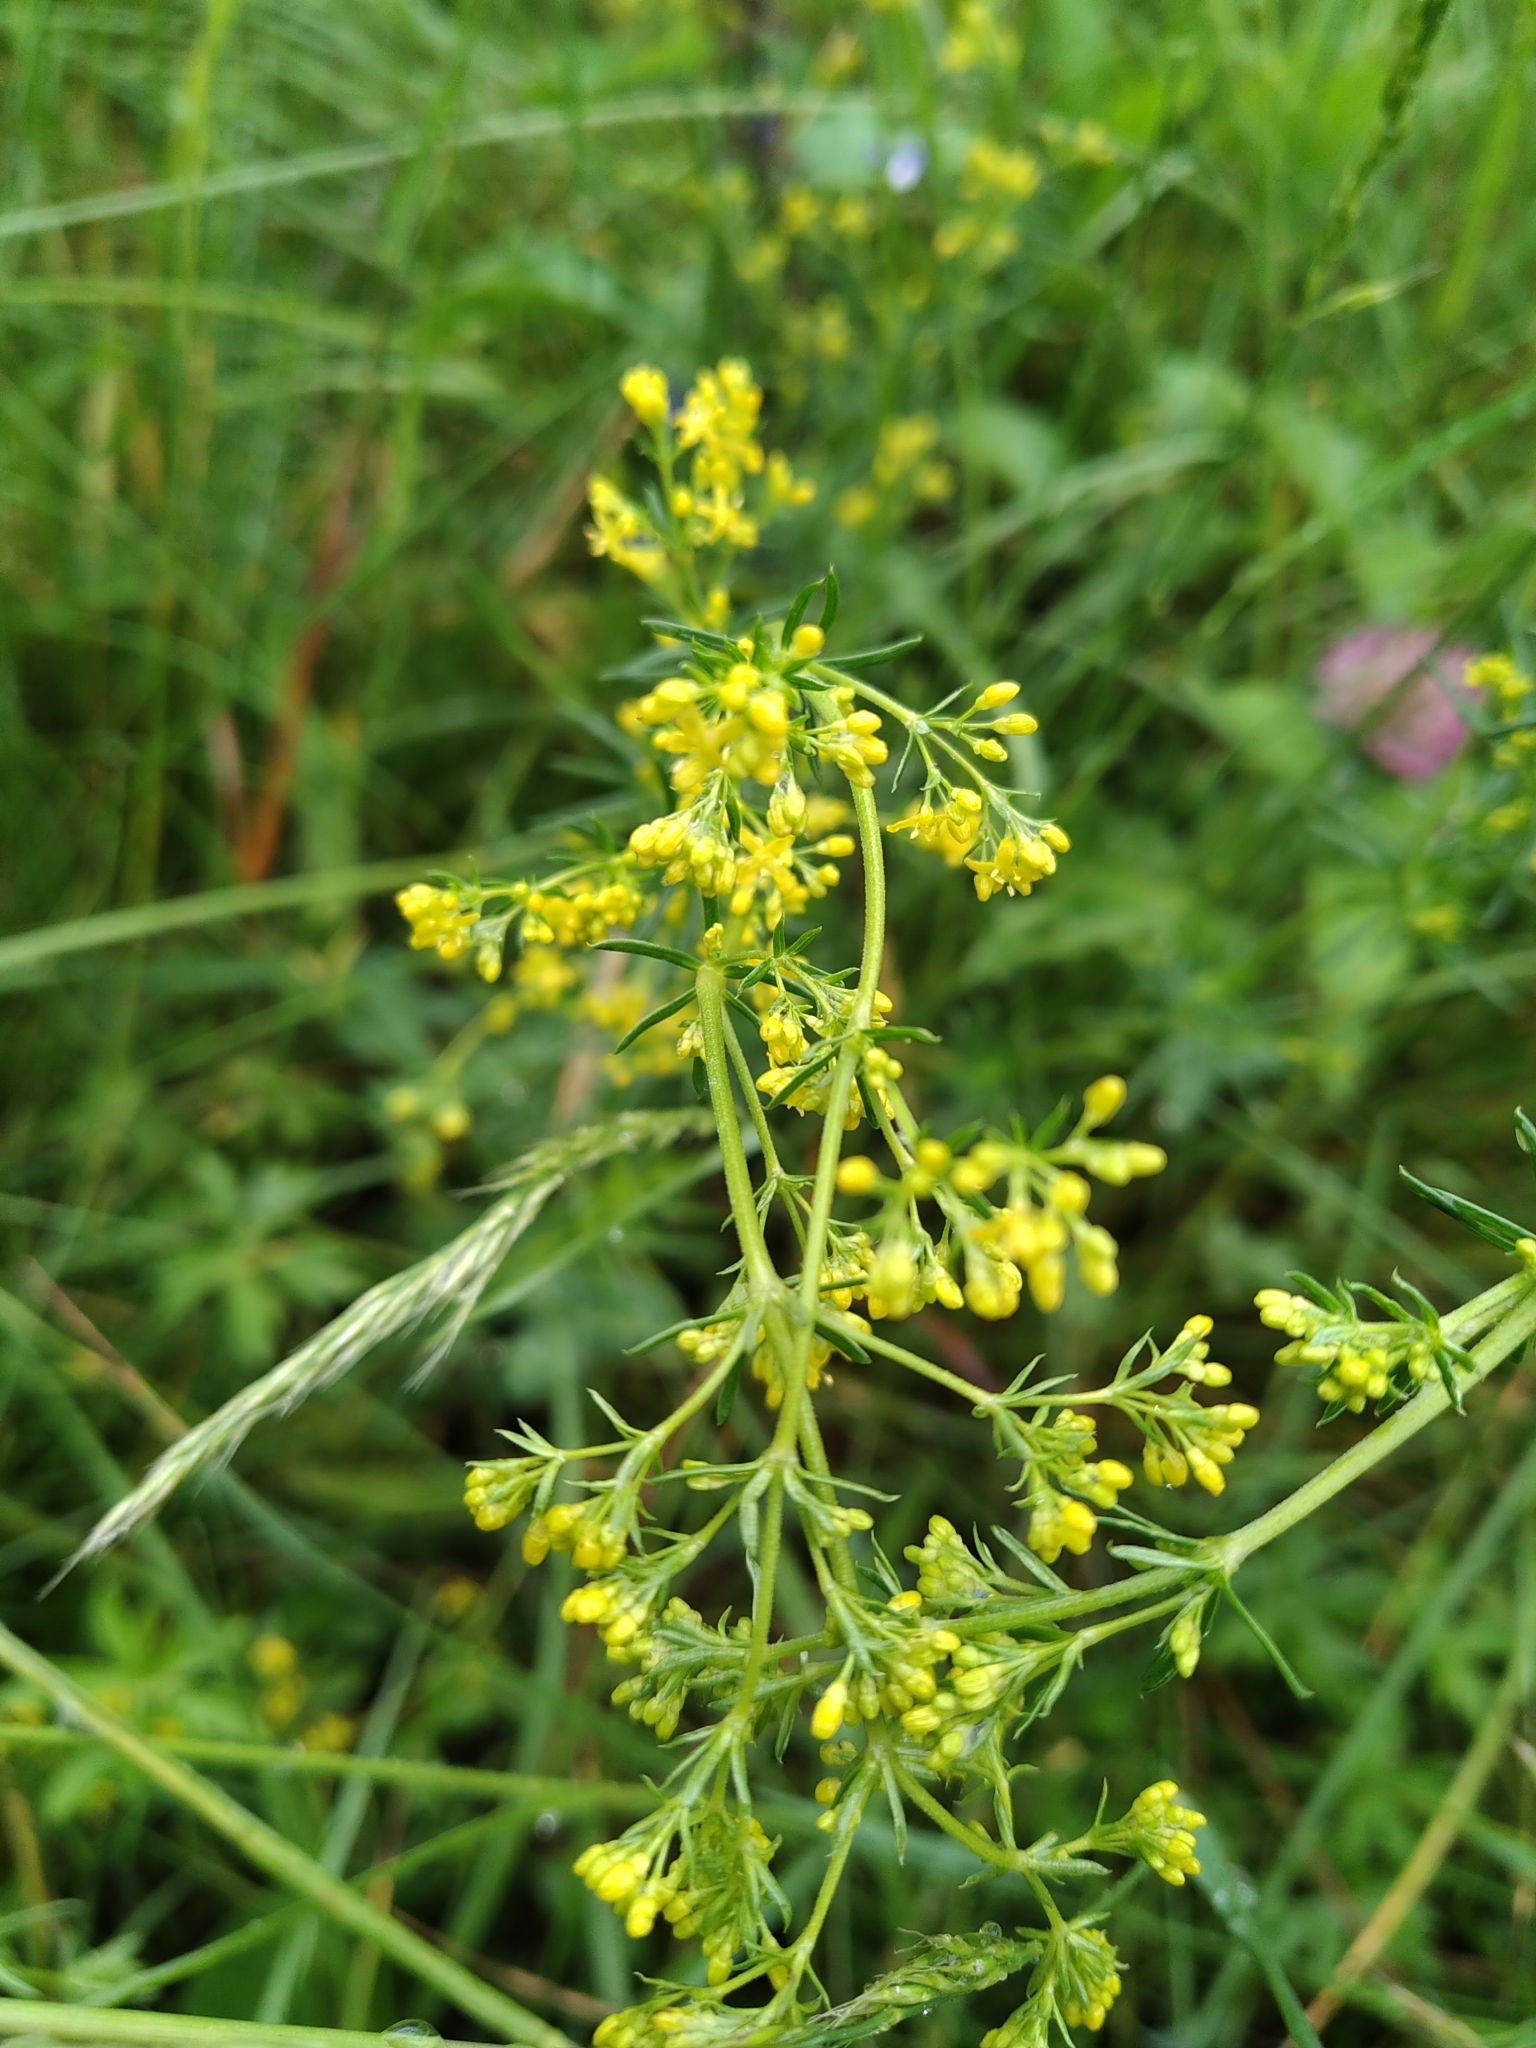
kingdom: Plantae
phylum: Tracheophyta
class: Magnoliopsida
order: Gentianales
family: Rubiaceae
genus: Galium
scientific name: Galium verum
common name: Lady's bedstraw
